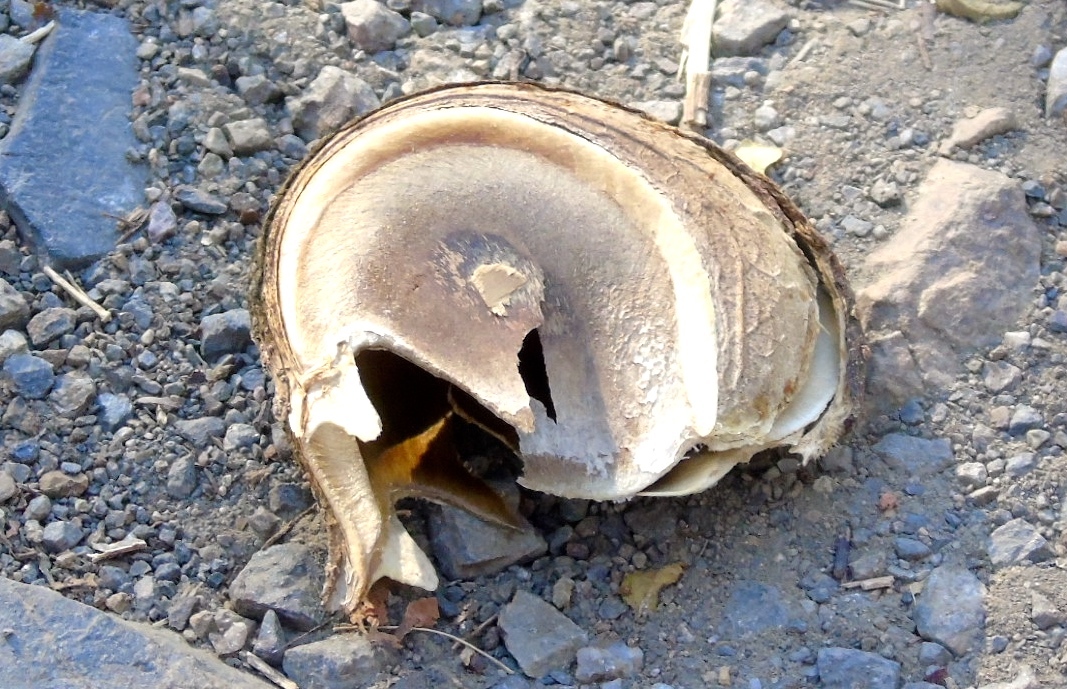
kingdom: Plantae
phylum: Tracheophyta
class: Magnoliopsida
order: Malpighiales
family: Euphorbiaceae
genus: Hura
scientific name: Hura polyandra
